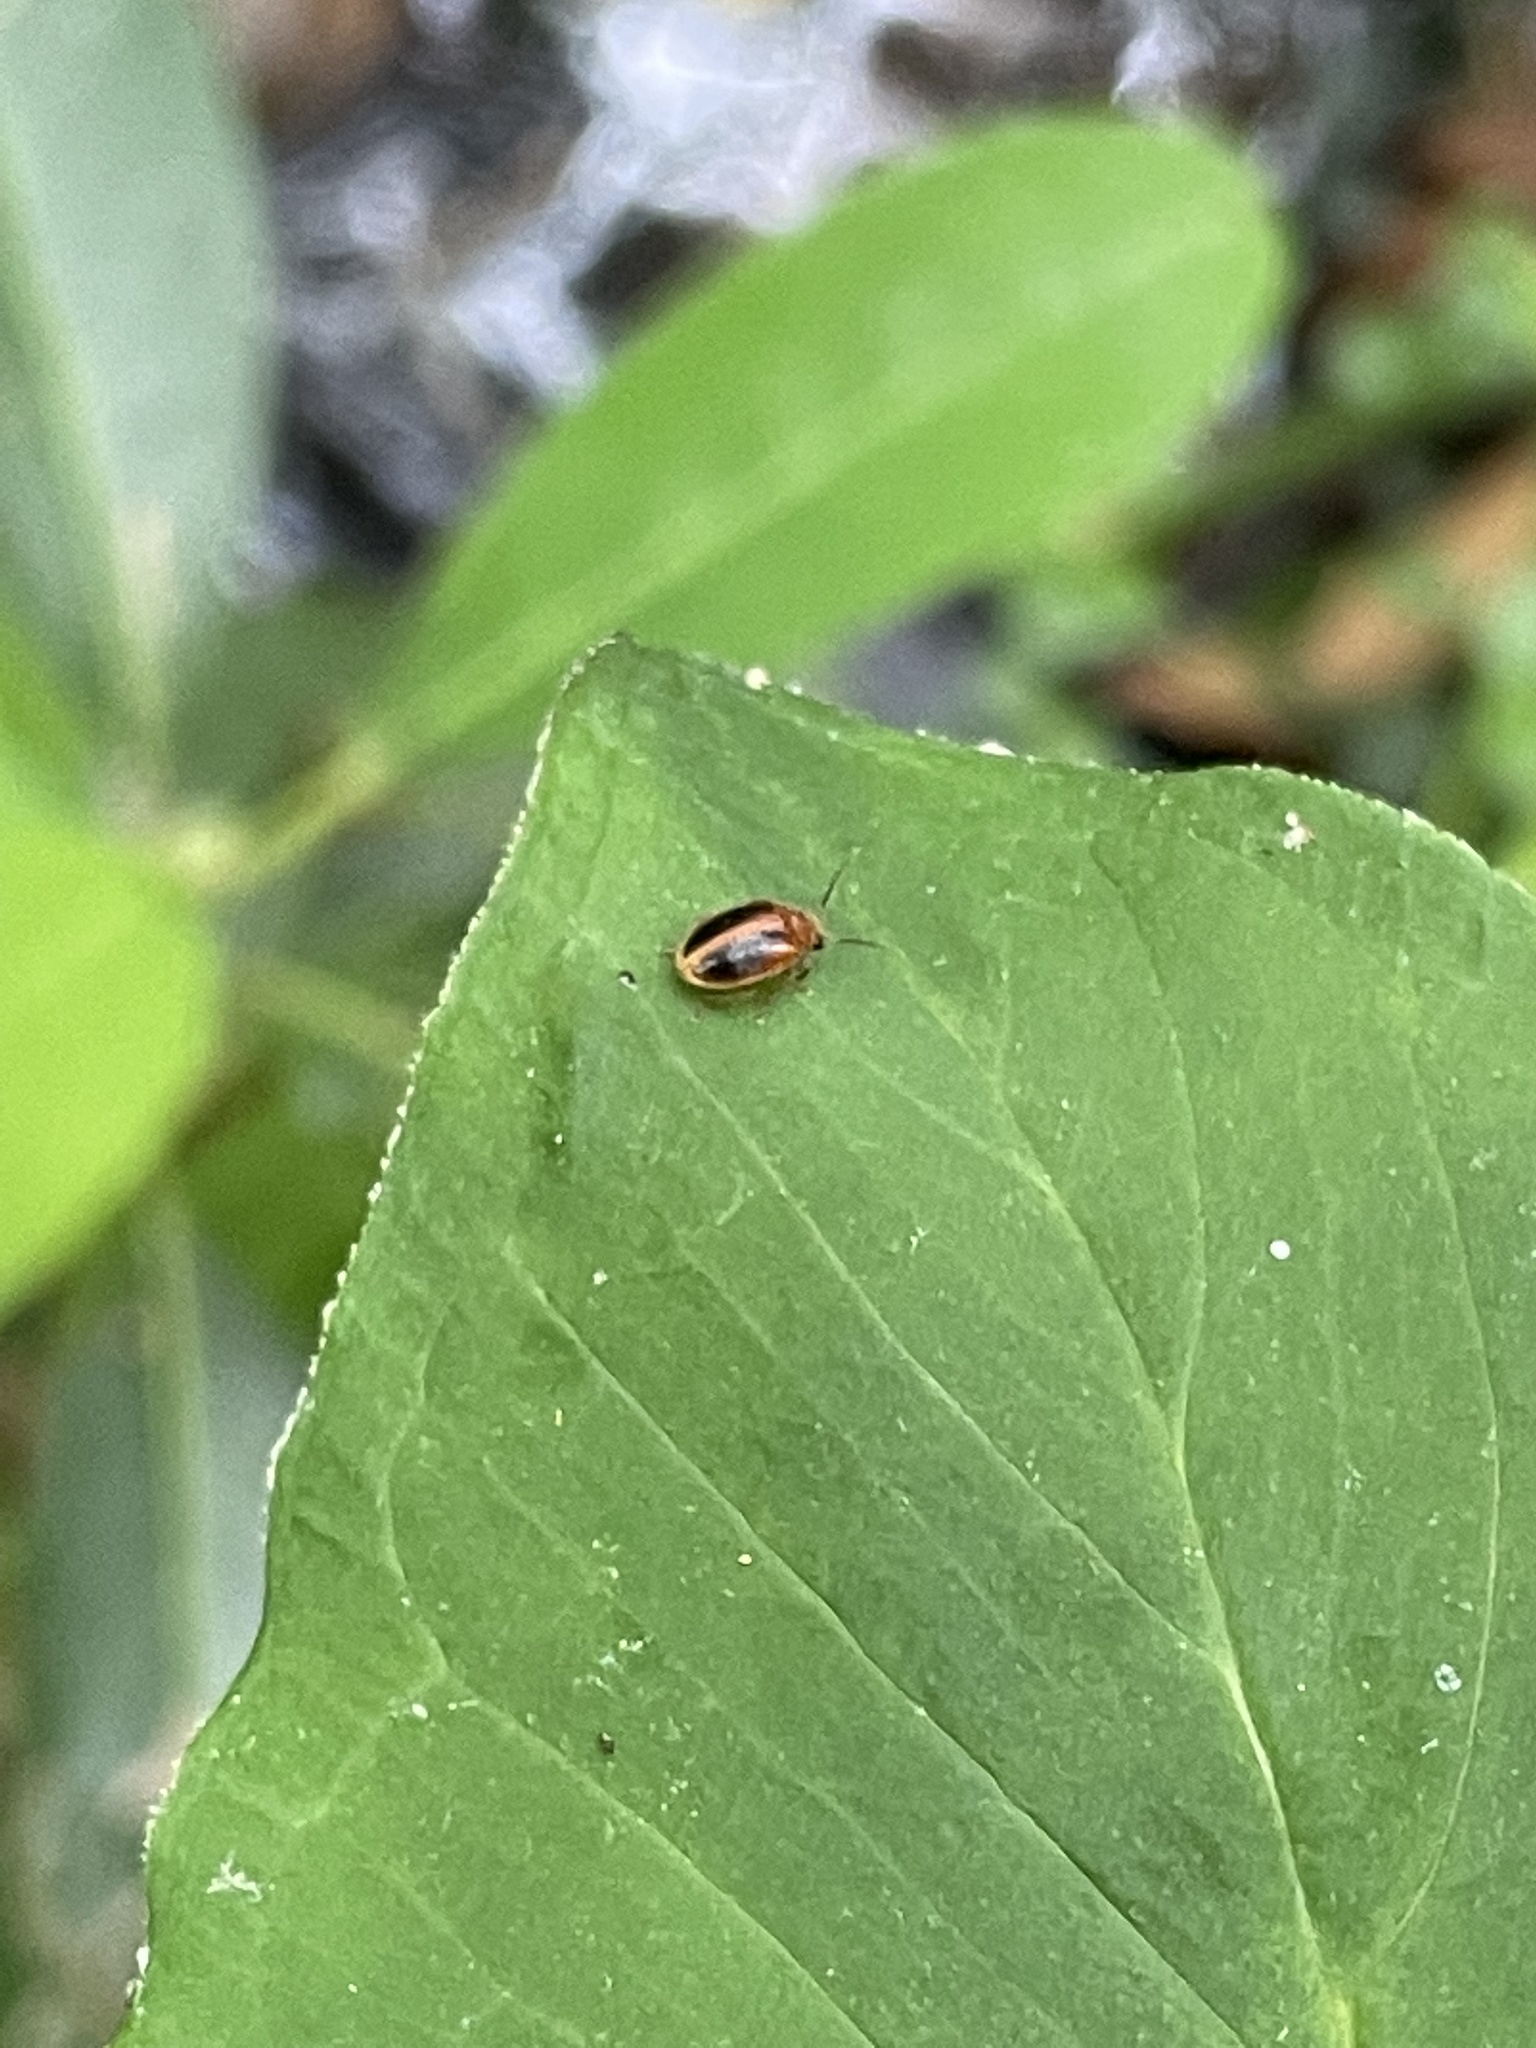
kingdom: Animalia
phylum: Arthropoda
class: Insecta
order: Coleoptera
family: Scirtidae
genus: Prionocyphon
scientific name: Prionocyphon limbatus
